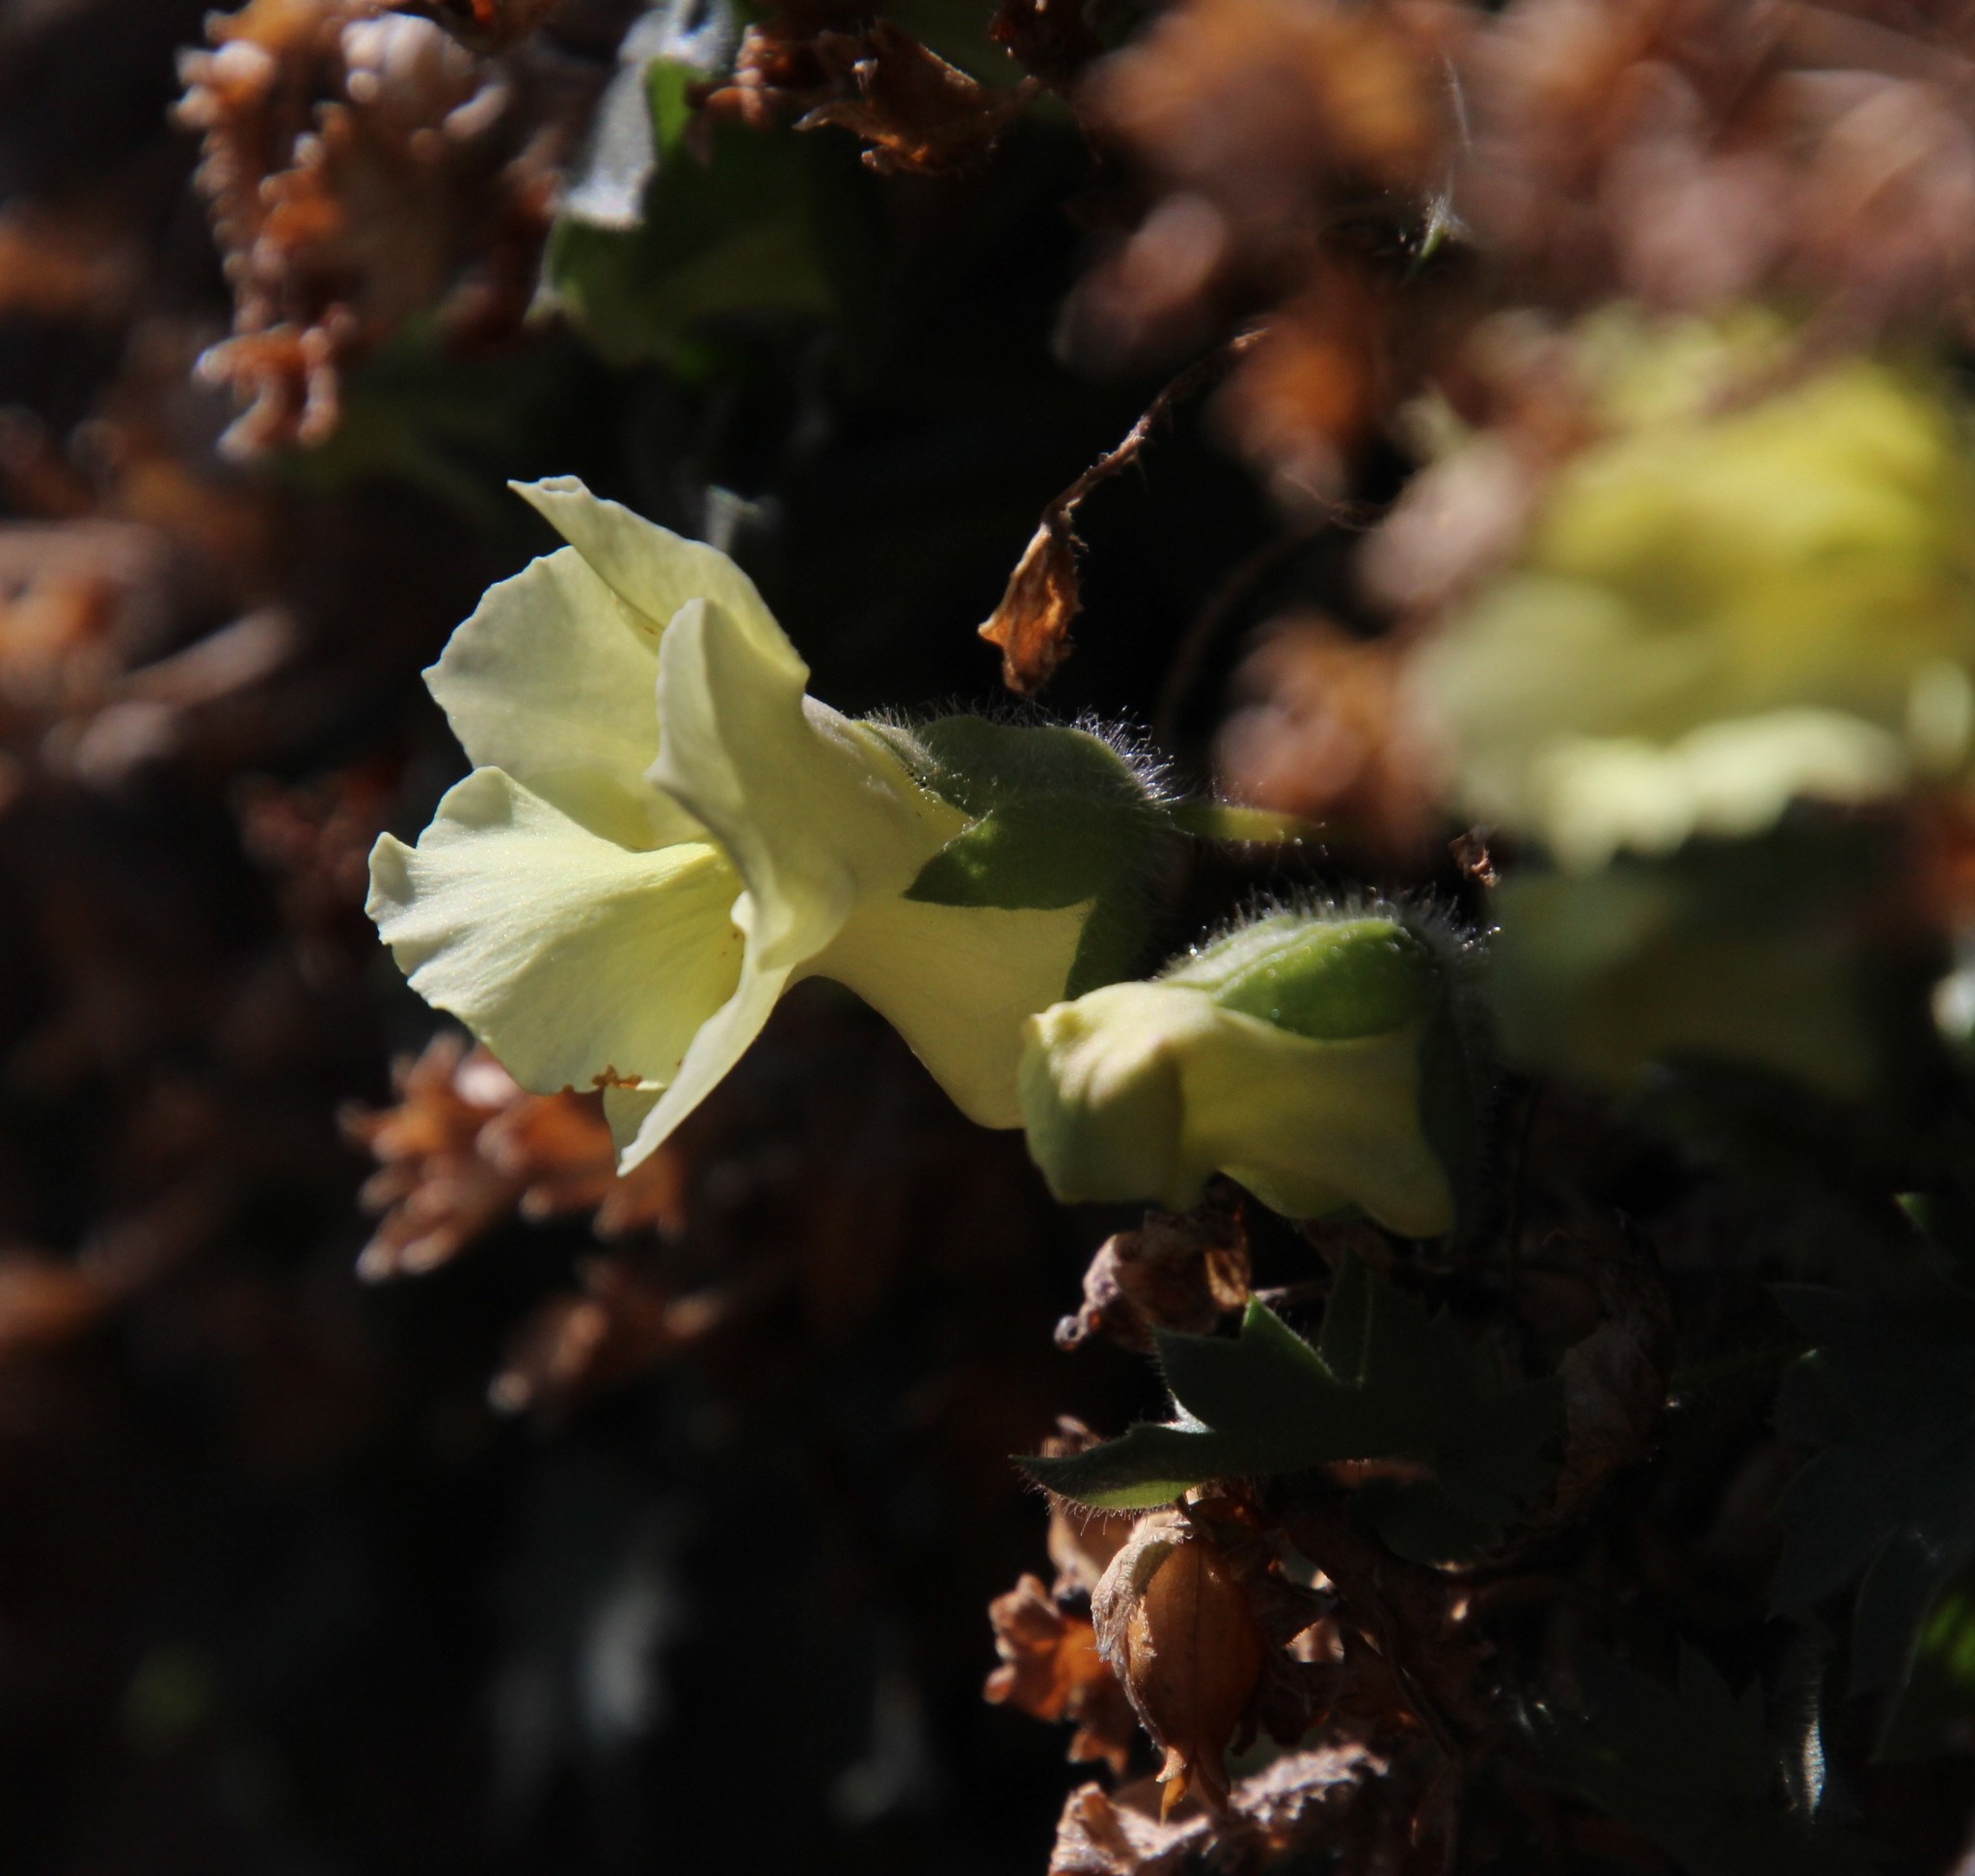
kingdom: Plantae
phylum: Tracheophyta
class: Magnoliopsida
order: Lamiales
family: Scrophulariaceae
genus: Colpias
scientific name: Colpias mollis
